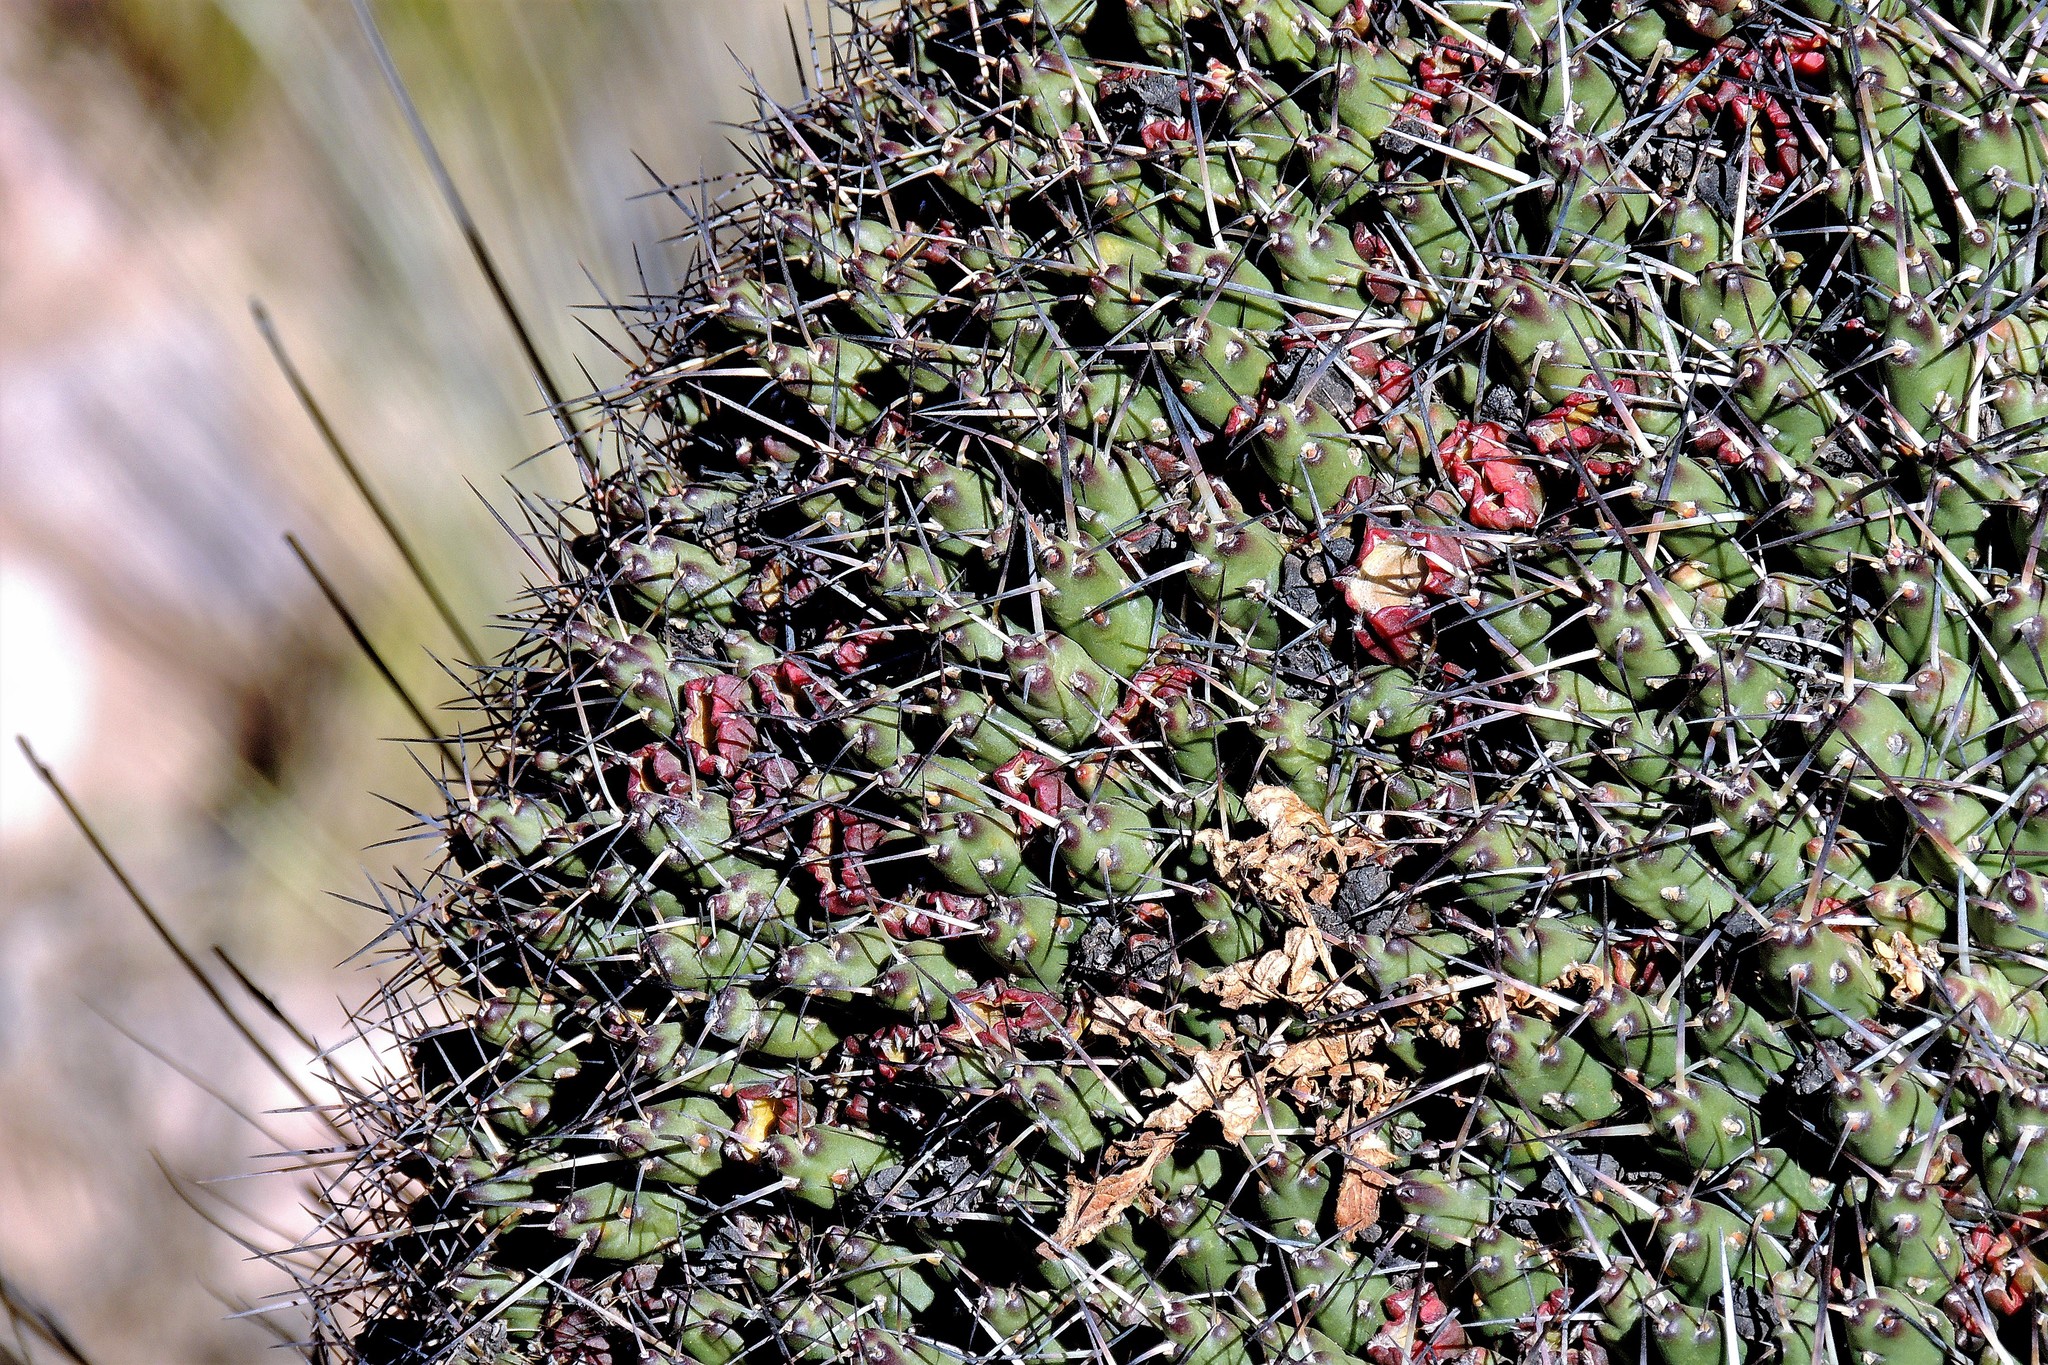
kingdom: Plantae
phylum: Tracheophyta
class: Magnoliopsida
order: Caryophyllales
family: Cactaceae
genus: Maihueniopsis
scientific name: Maihueniopsis glomerata
